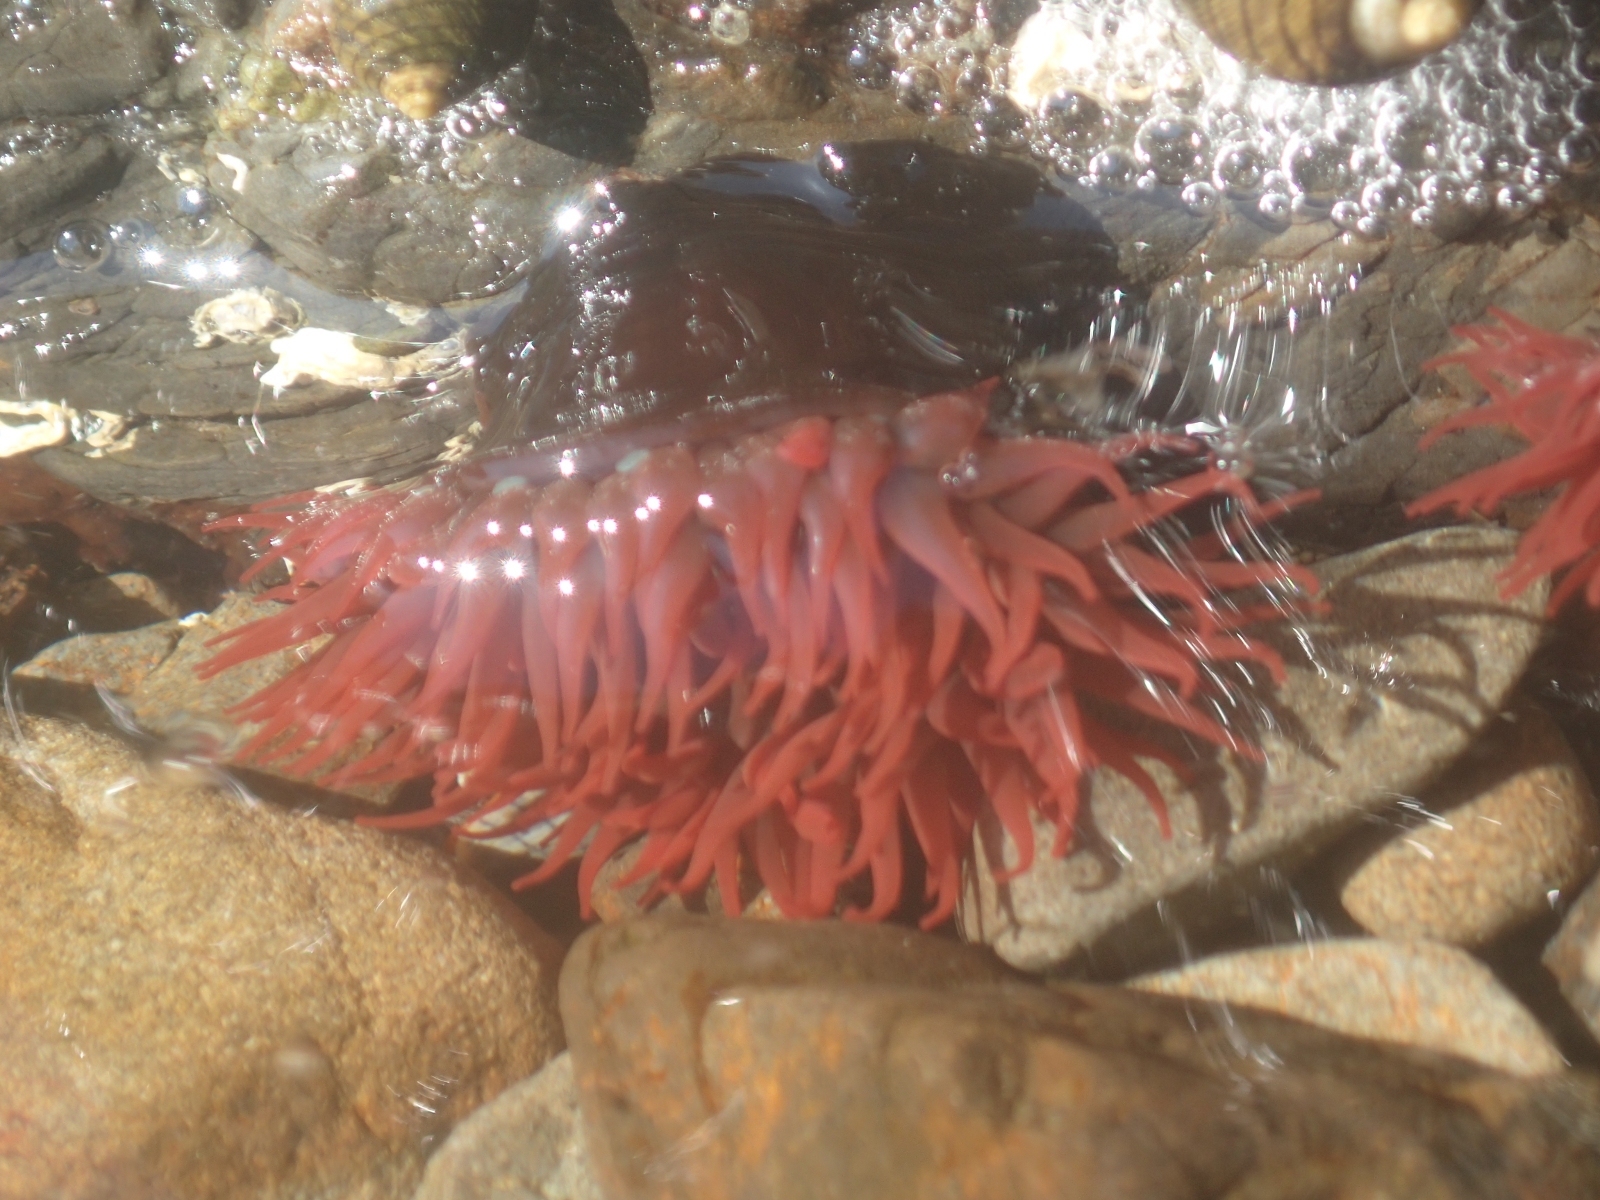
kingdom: Animalia
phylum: Cnidaria
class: Anthozoa
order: Actiniaria
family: Actiniidae
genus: Actinia
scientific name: Actinia tenebrosa
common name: Waratah anemone
